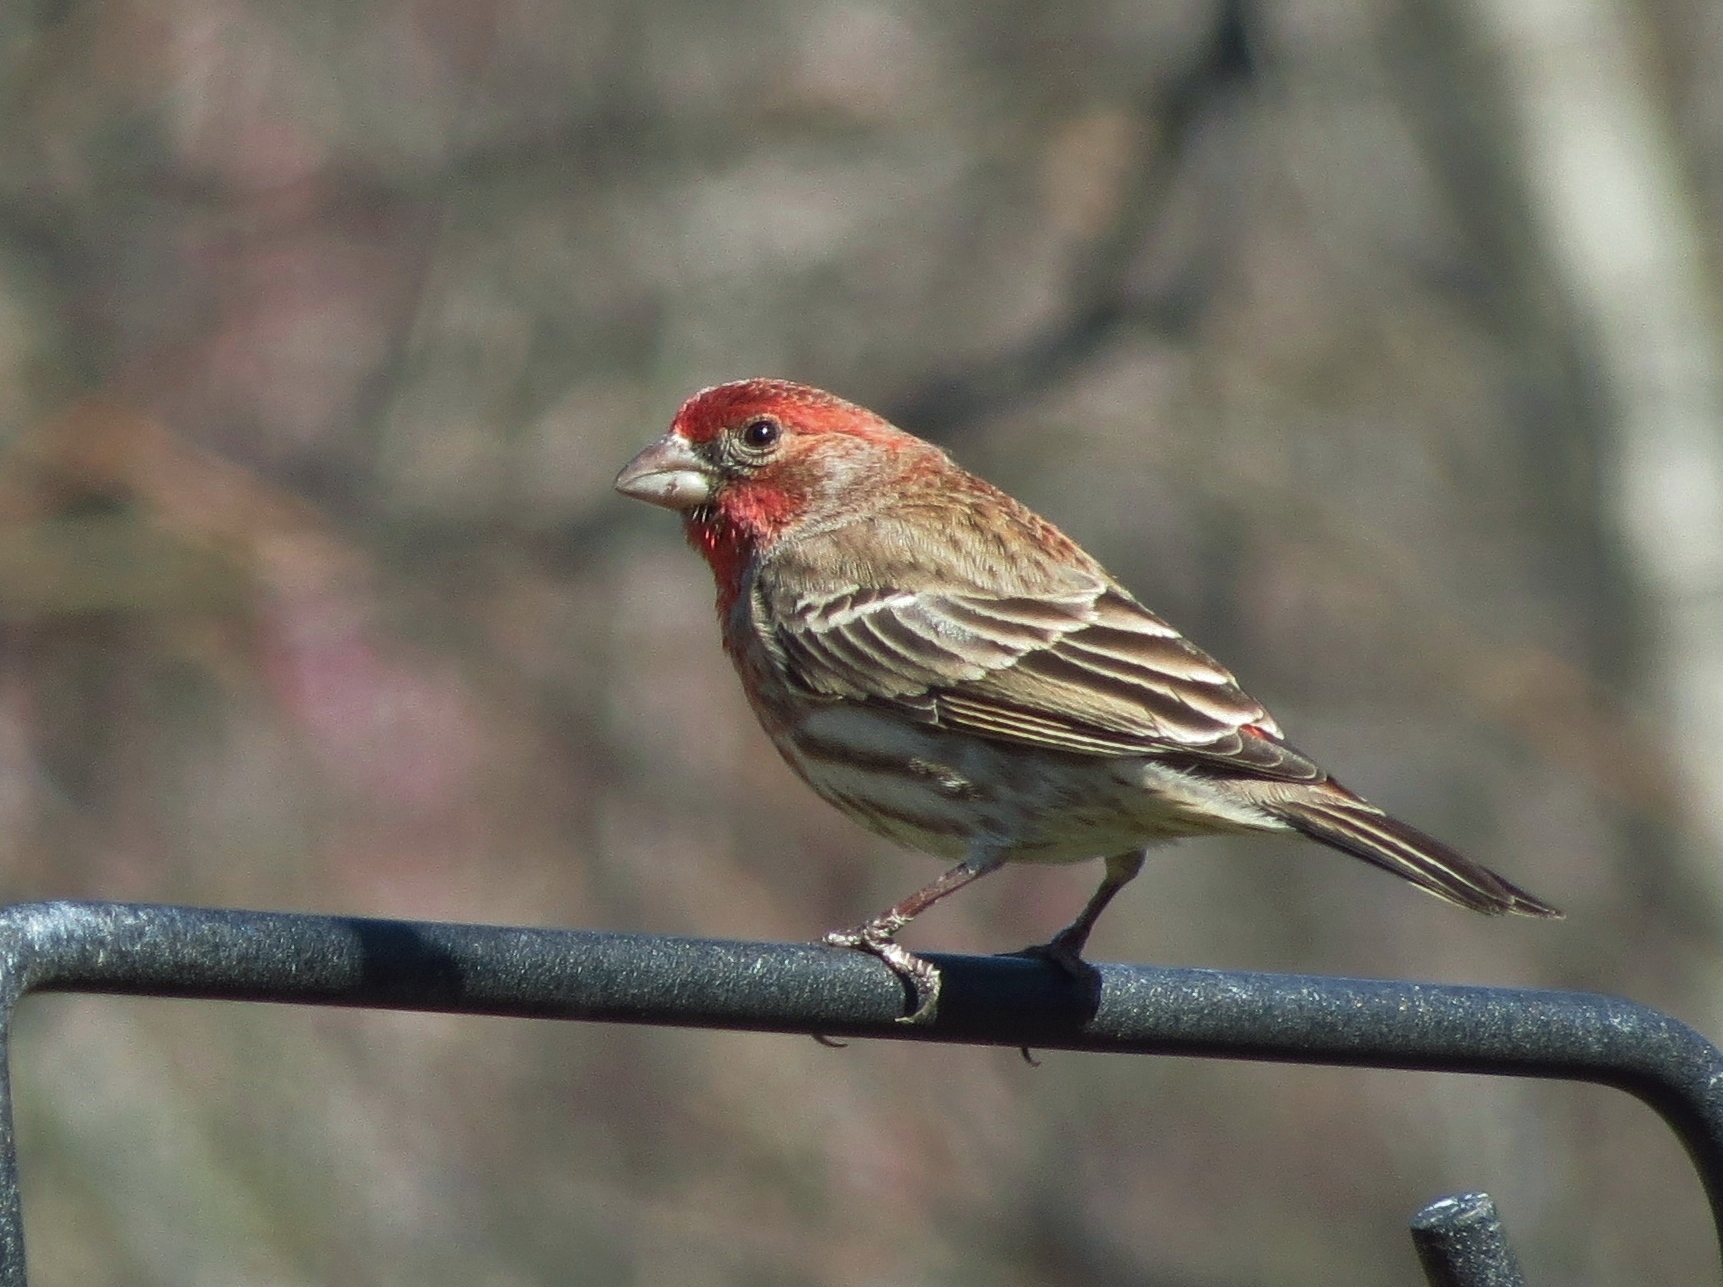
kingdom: Animalia
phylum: Chordata
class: Aves
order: Passeriformes
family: Fringillidae
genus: Haemorhous
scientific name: Haemorhous mexicanus
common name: House finch
